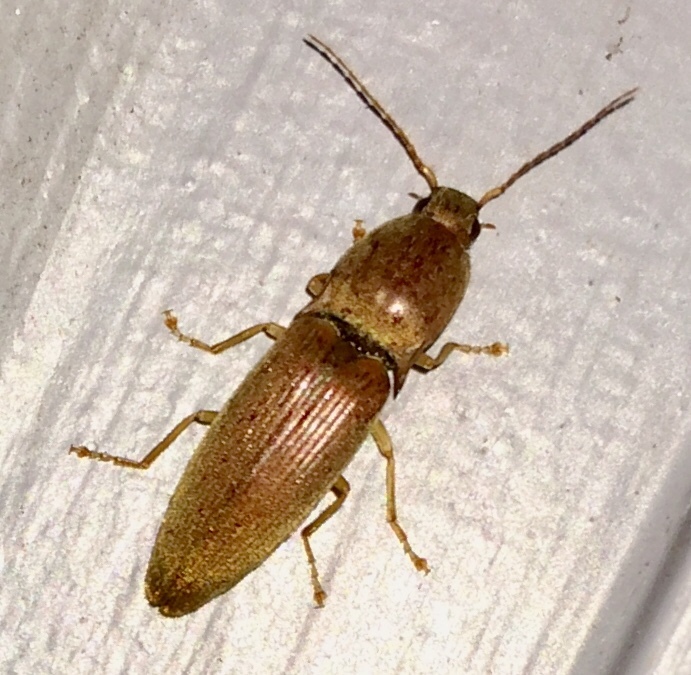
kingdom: Animalia
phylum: Arthropoda
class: Insecta
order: Coleoptera
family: Elateridae
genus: Monocrepidius
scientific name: Monocrepidius lividus
